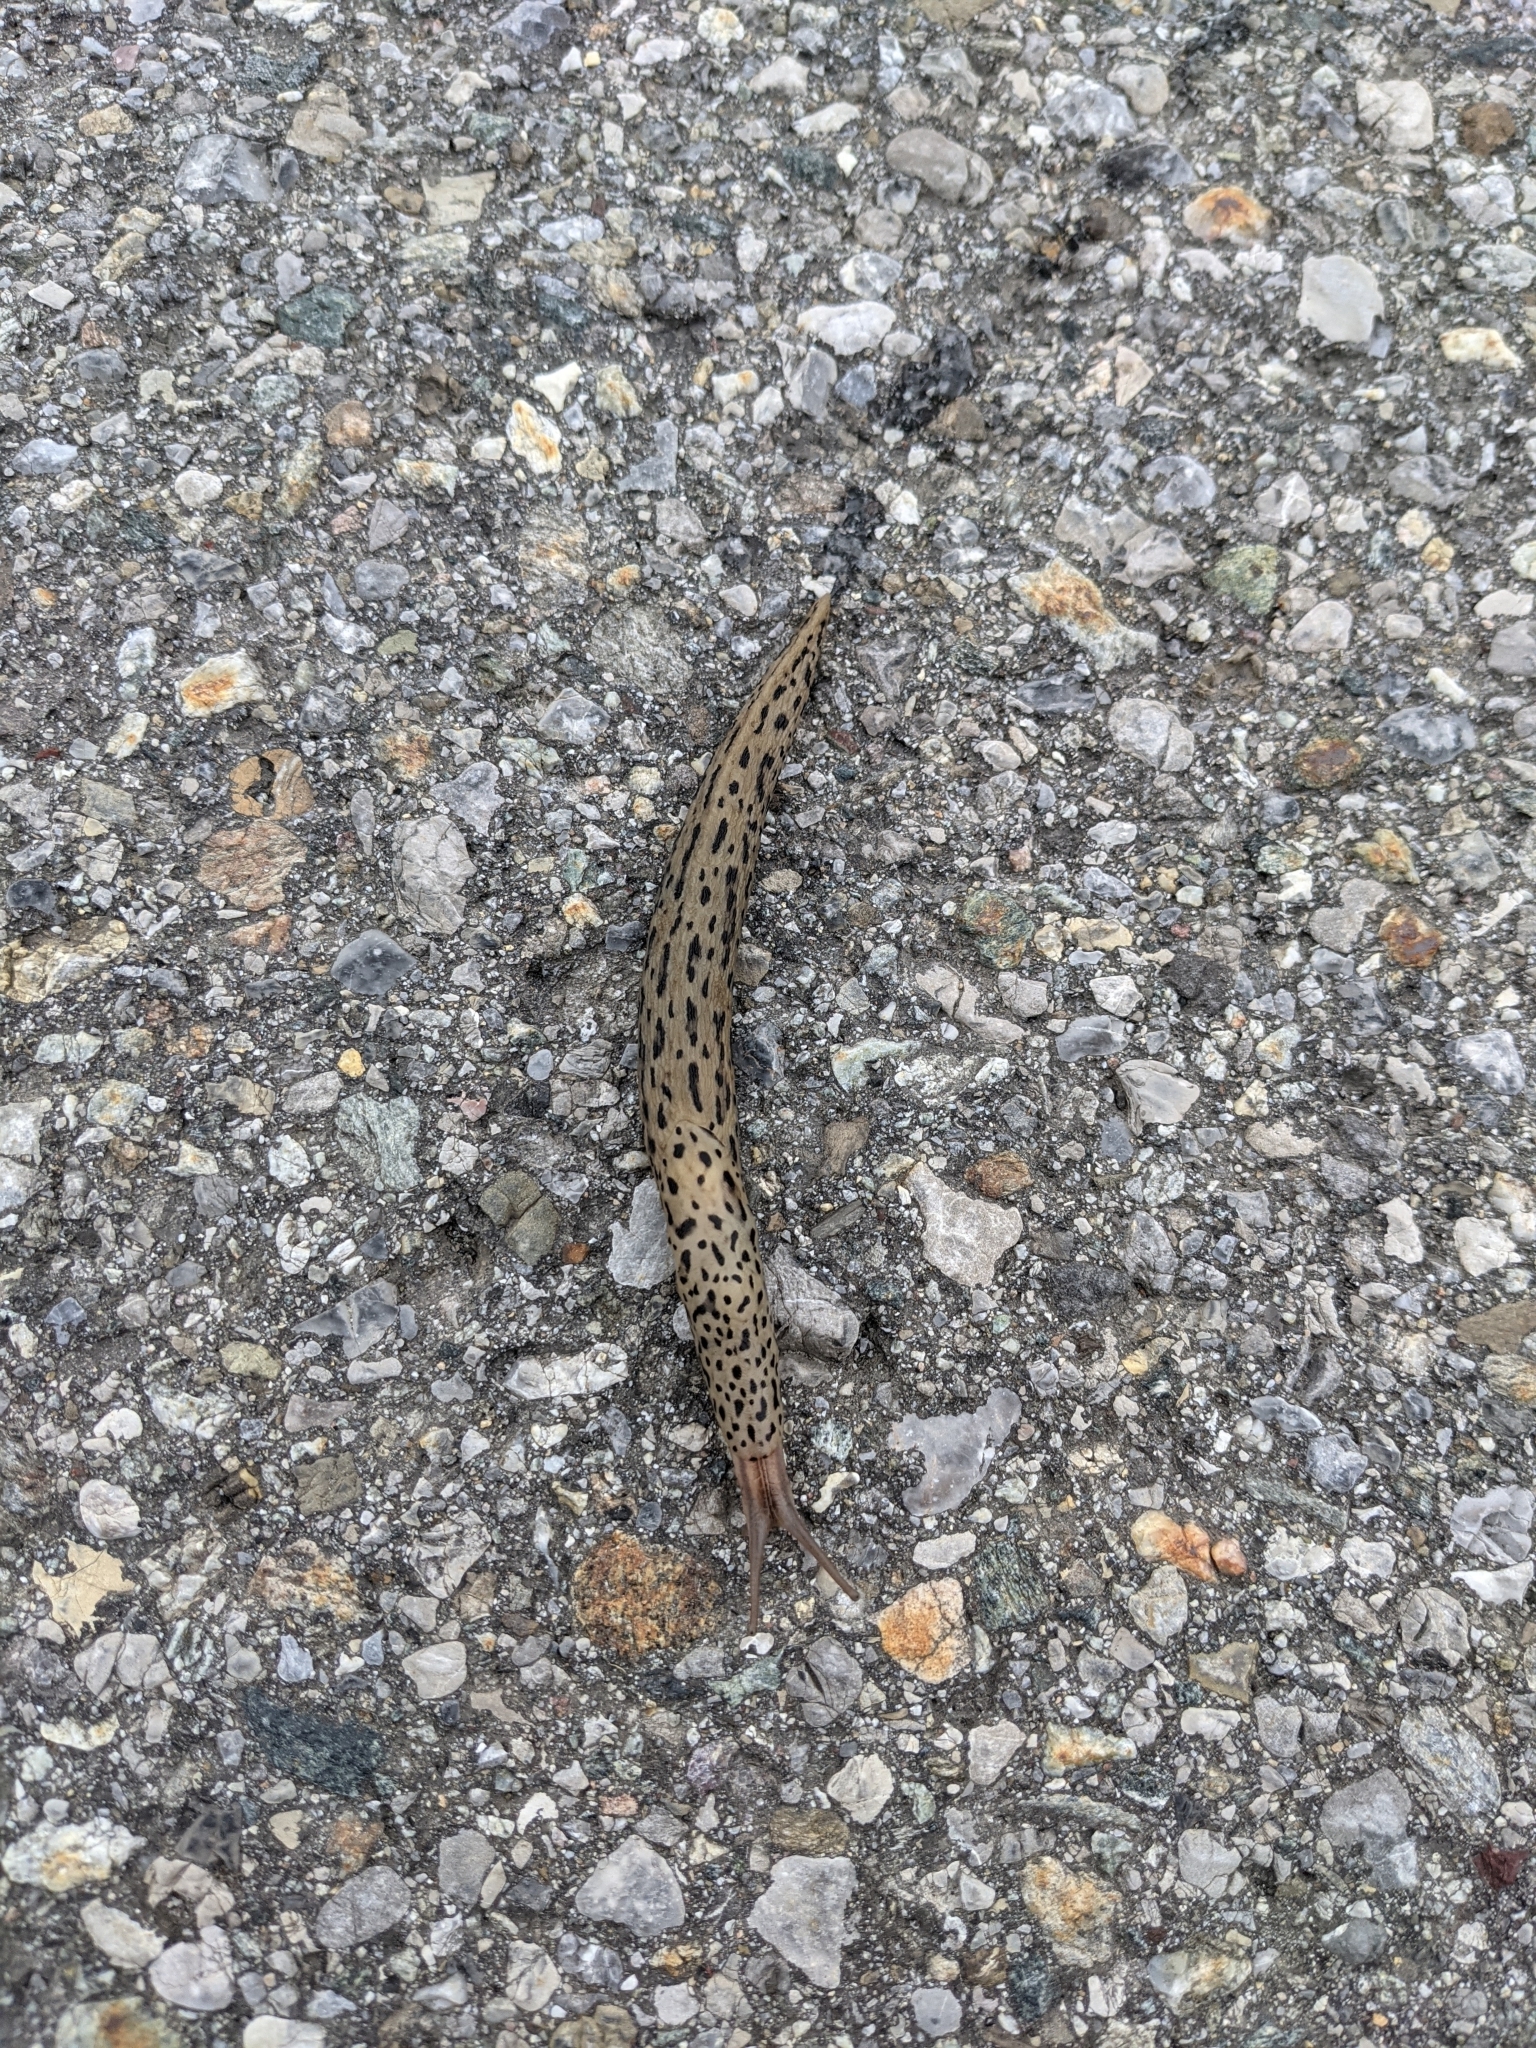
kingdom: Animalia
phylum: Mollusca
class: Gastropoda
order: Stylommatophora
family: Limacidae
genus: Limax
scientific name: Limax maximus
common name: Great grey slug
